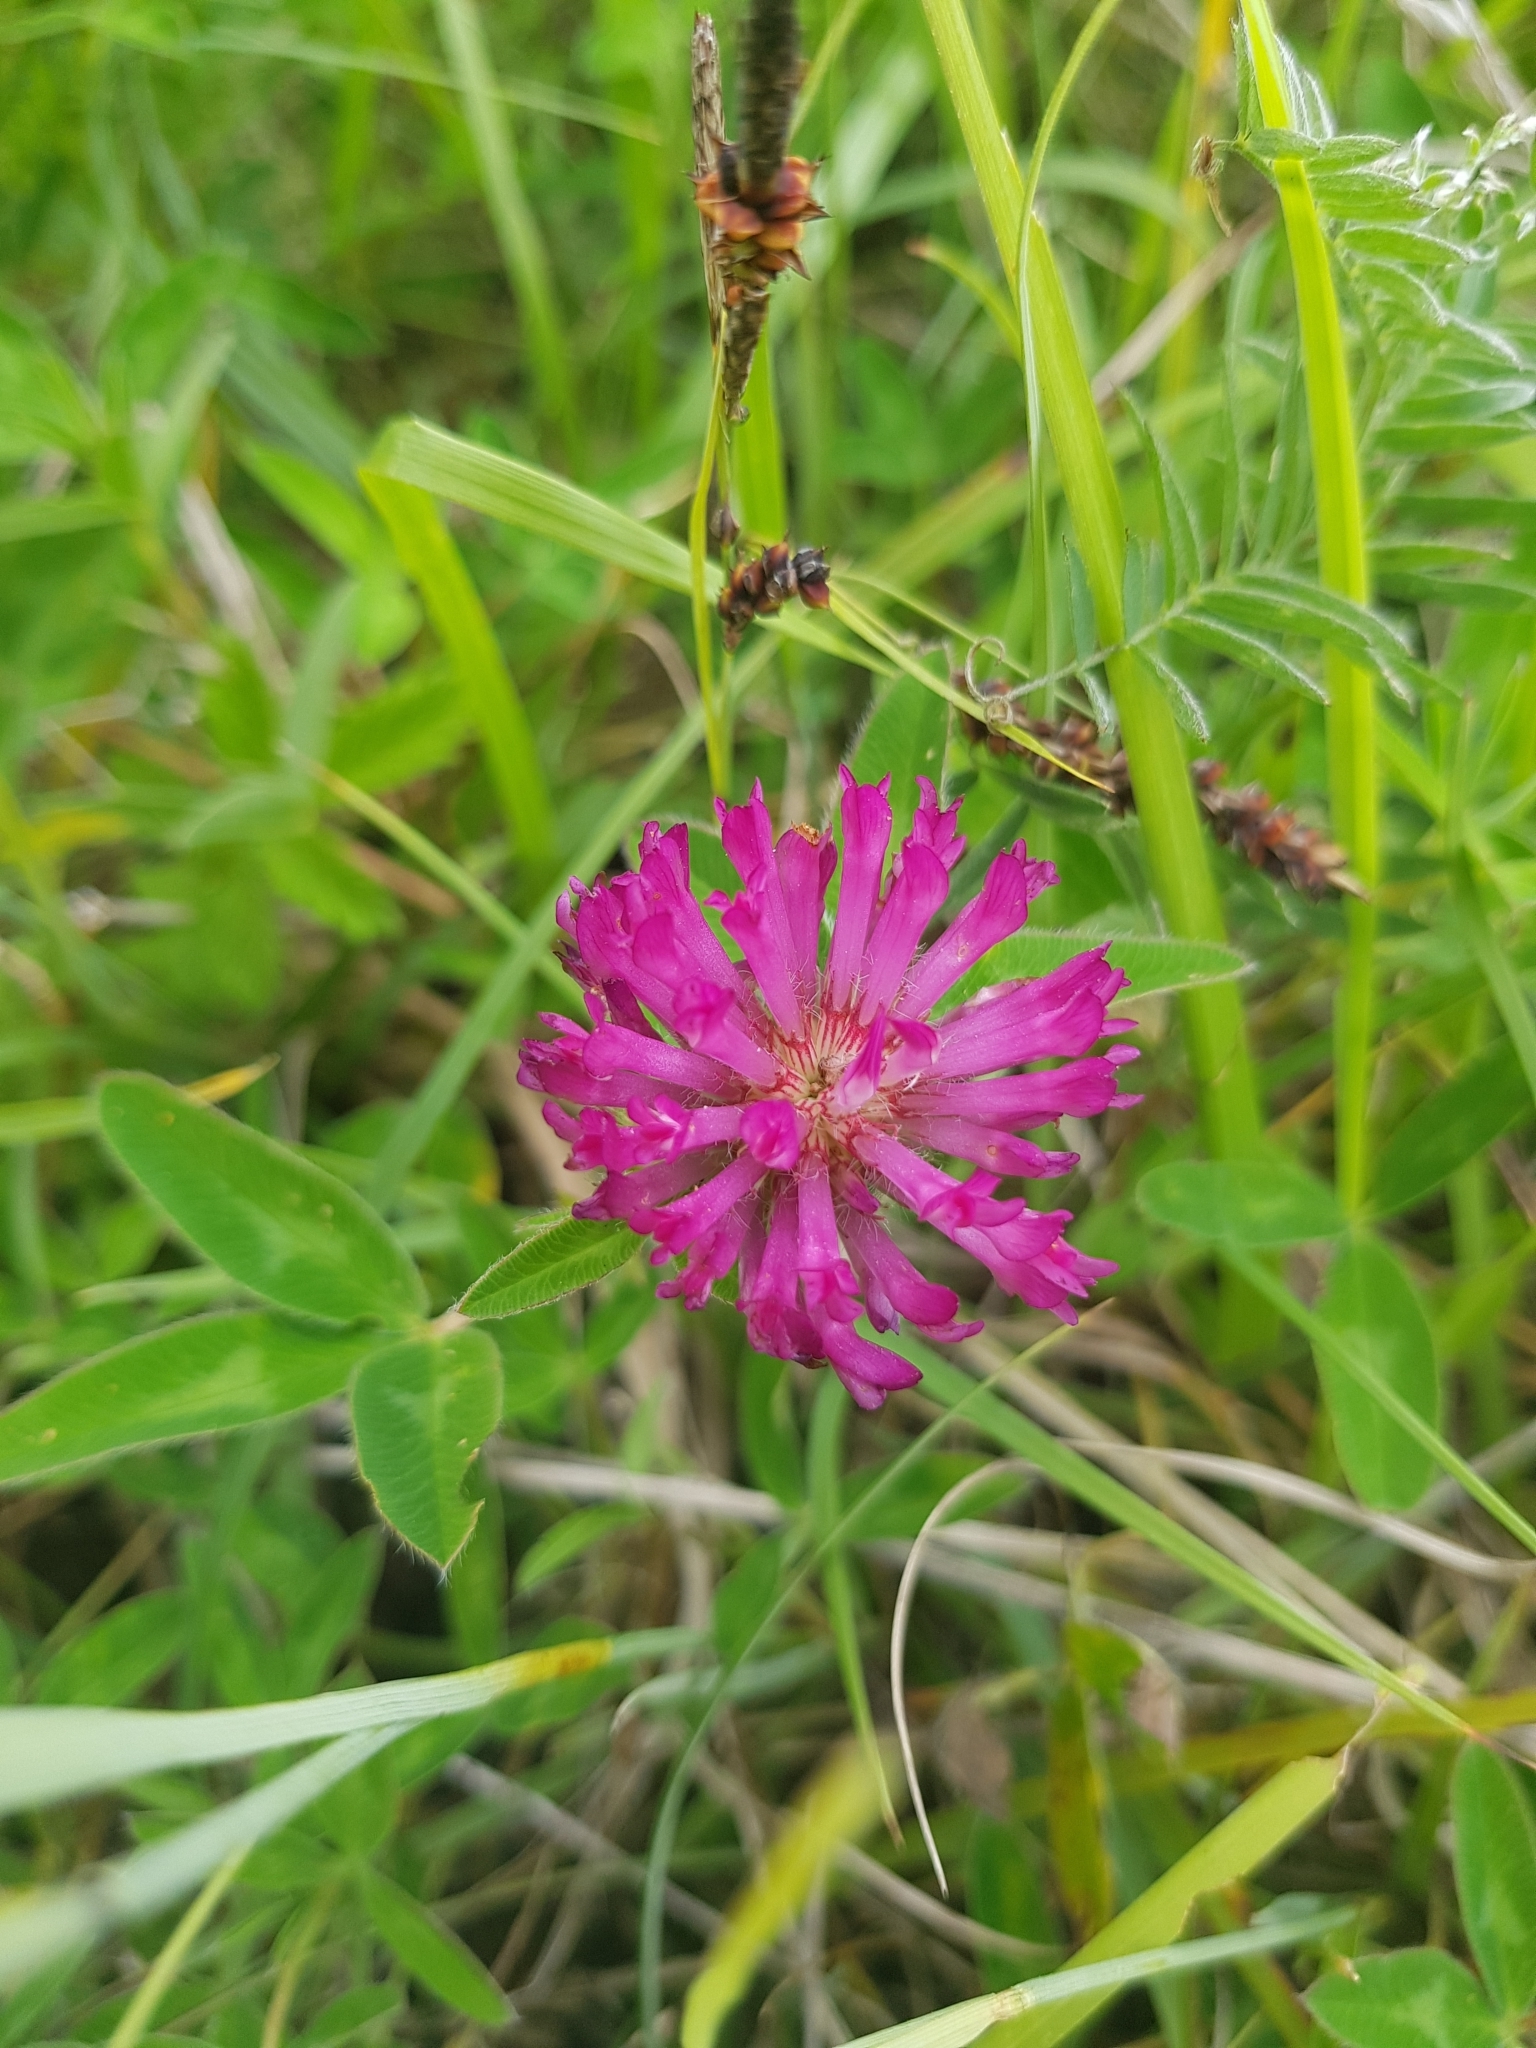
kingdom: Plantae
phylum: Tracheophyta
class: Magnoliopsida
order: Fabales
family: Fabaceae
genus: Trifolium
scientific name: Trifolium medium
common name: Zigzag clover
